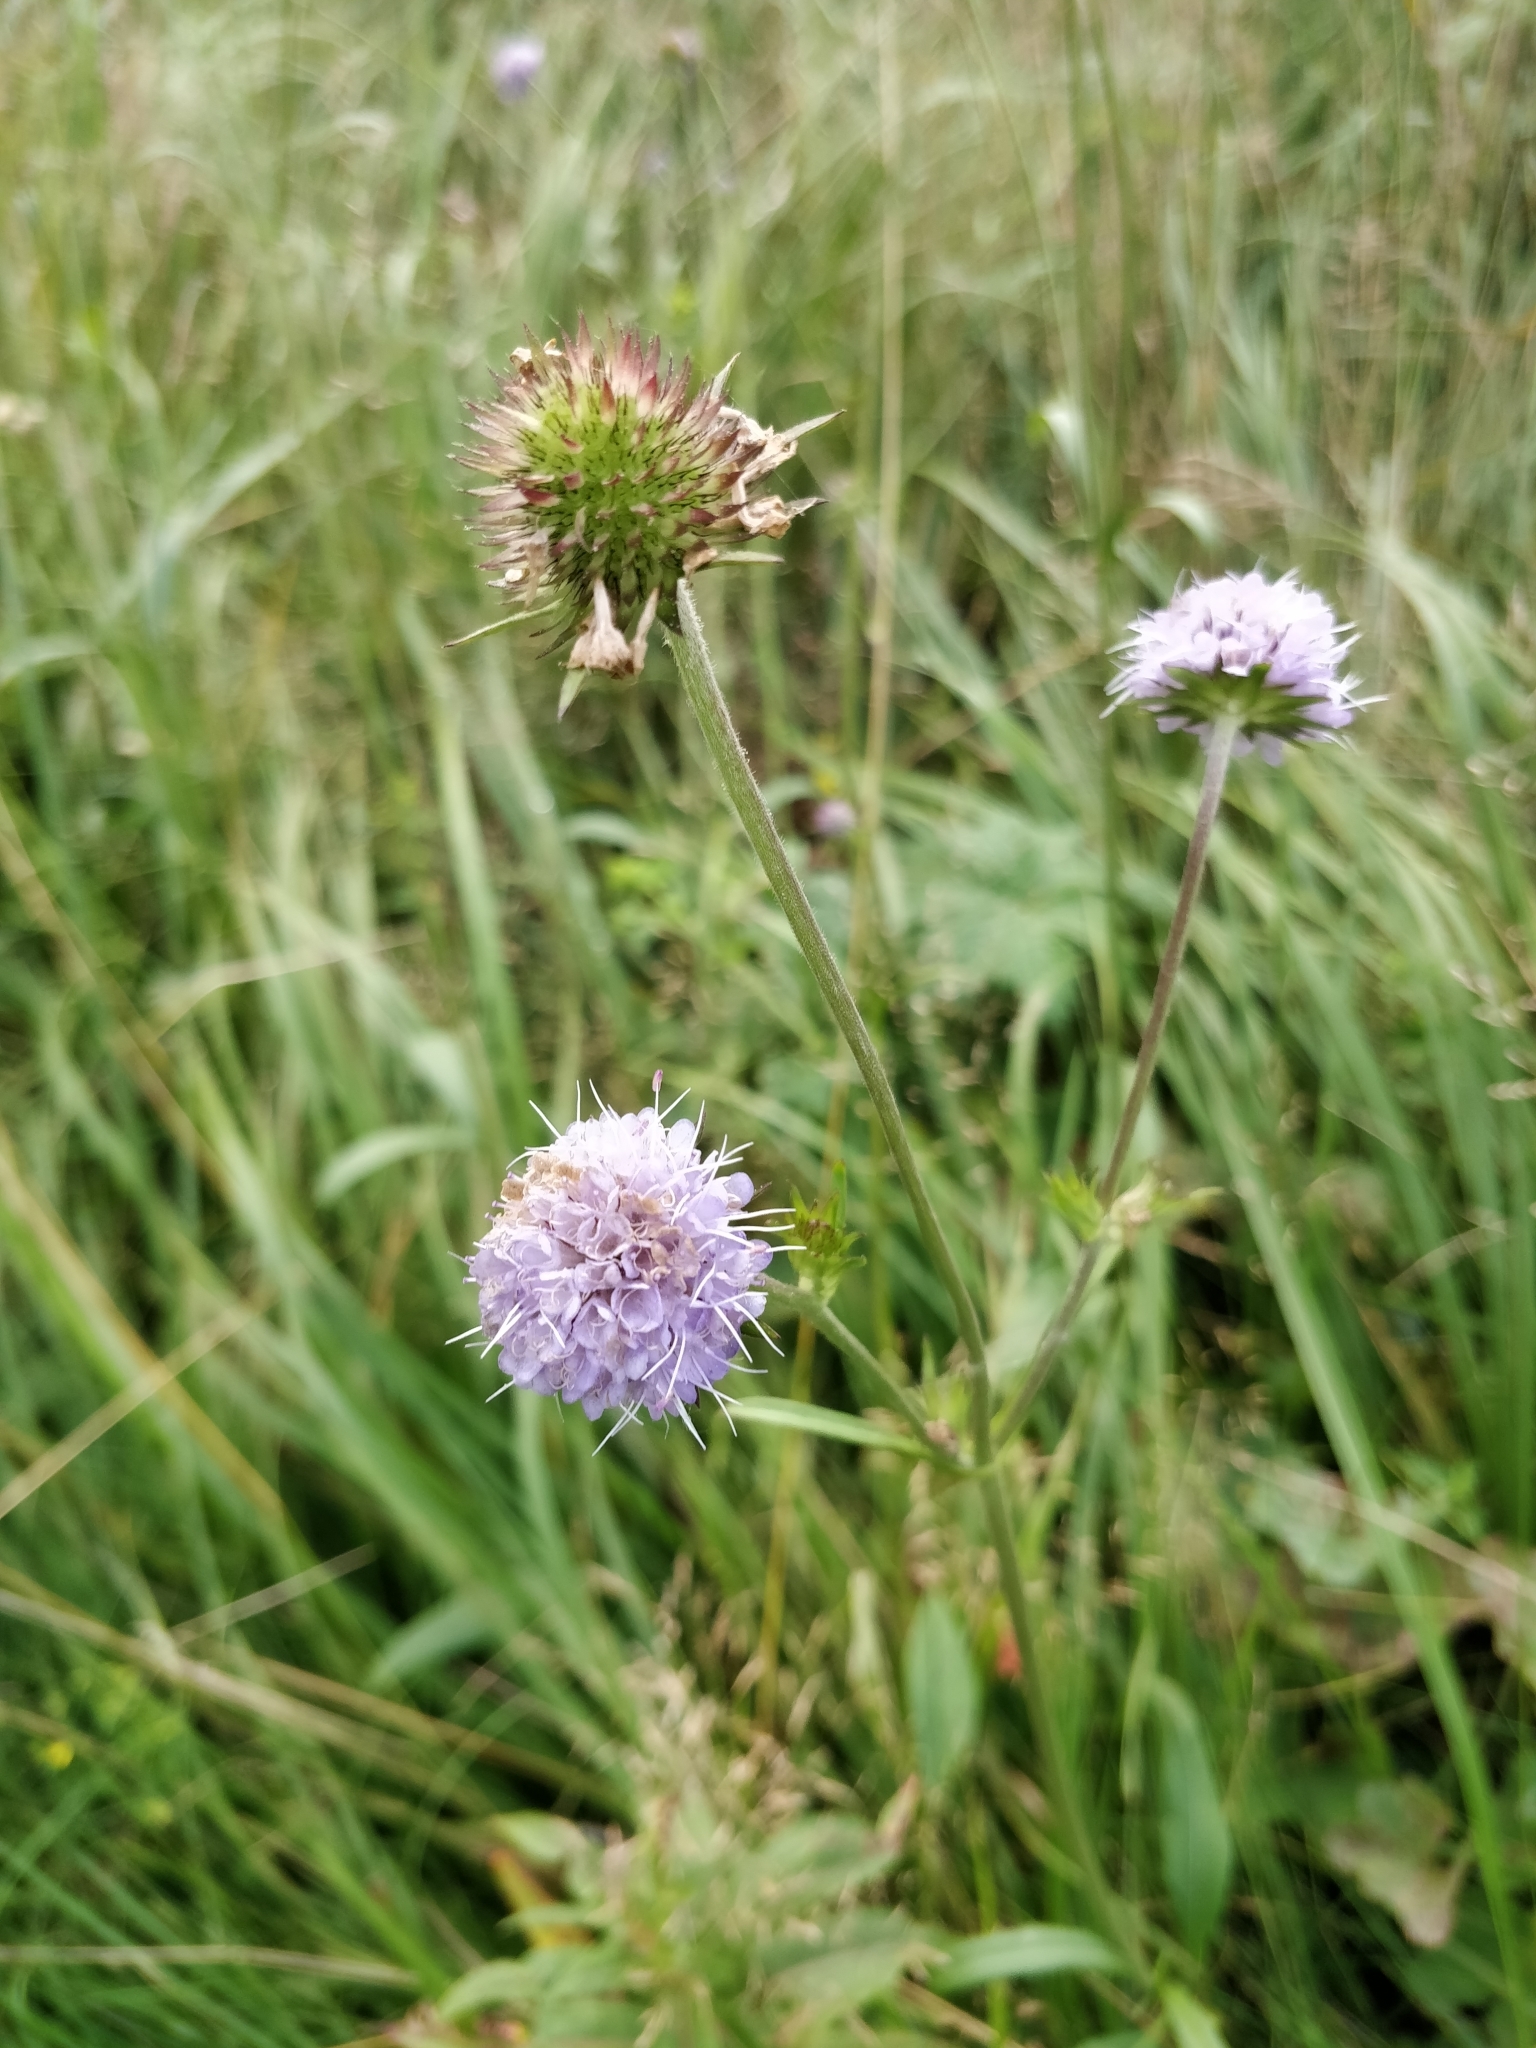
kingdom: Plantae
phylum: Tracheophyta
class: Magnoliopsida
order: Dipsacales
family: Caprifoliaceae
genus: Succisa
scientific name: Succisa pratensis
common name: Devil's-bit
